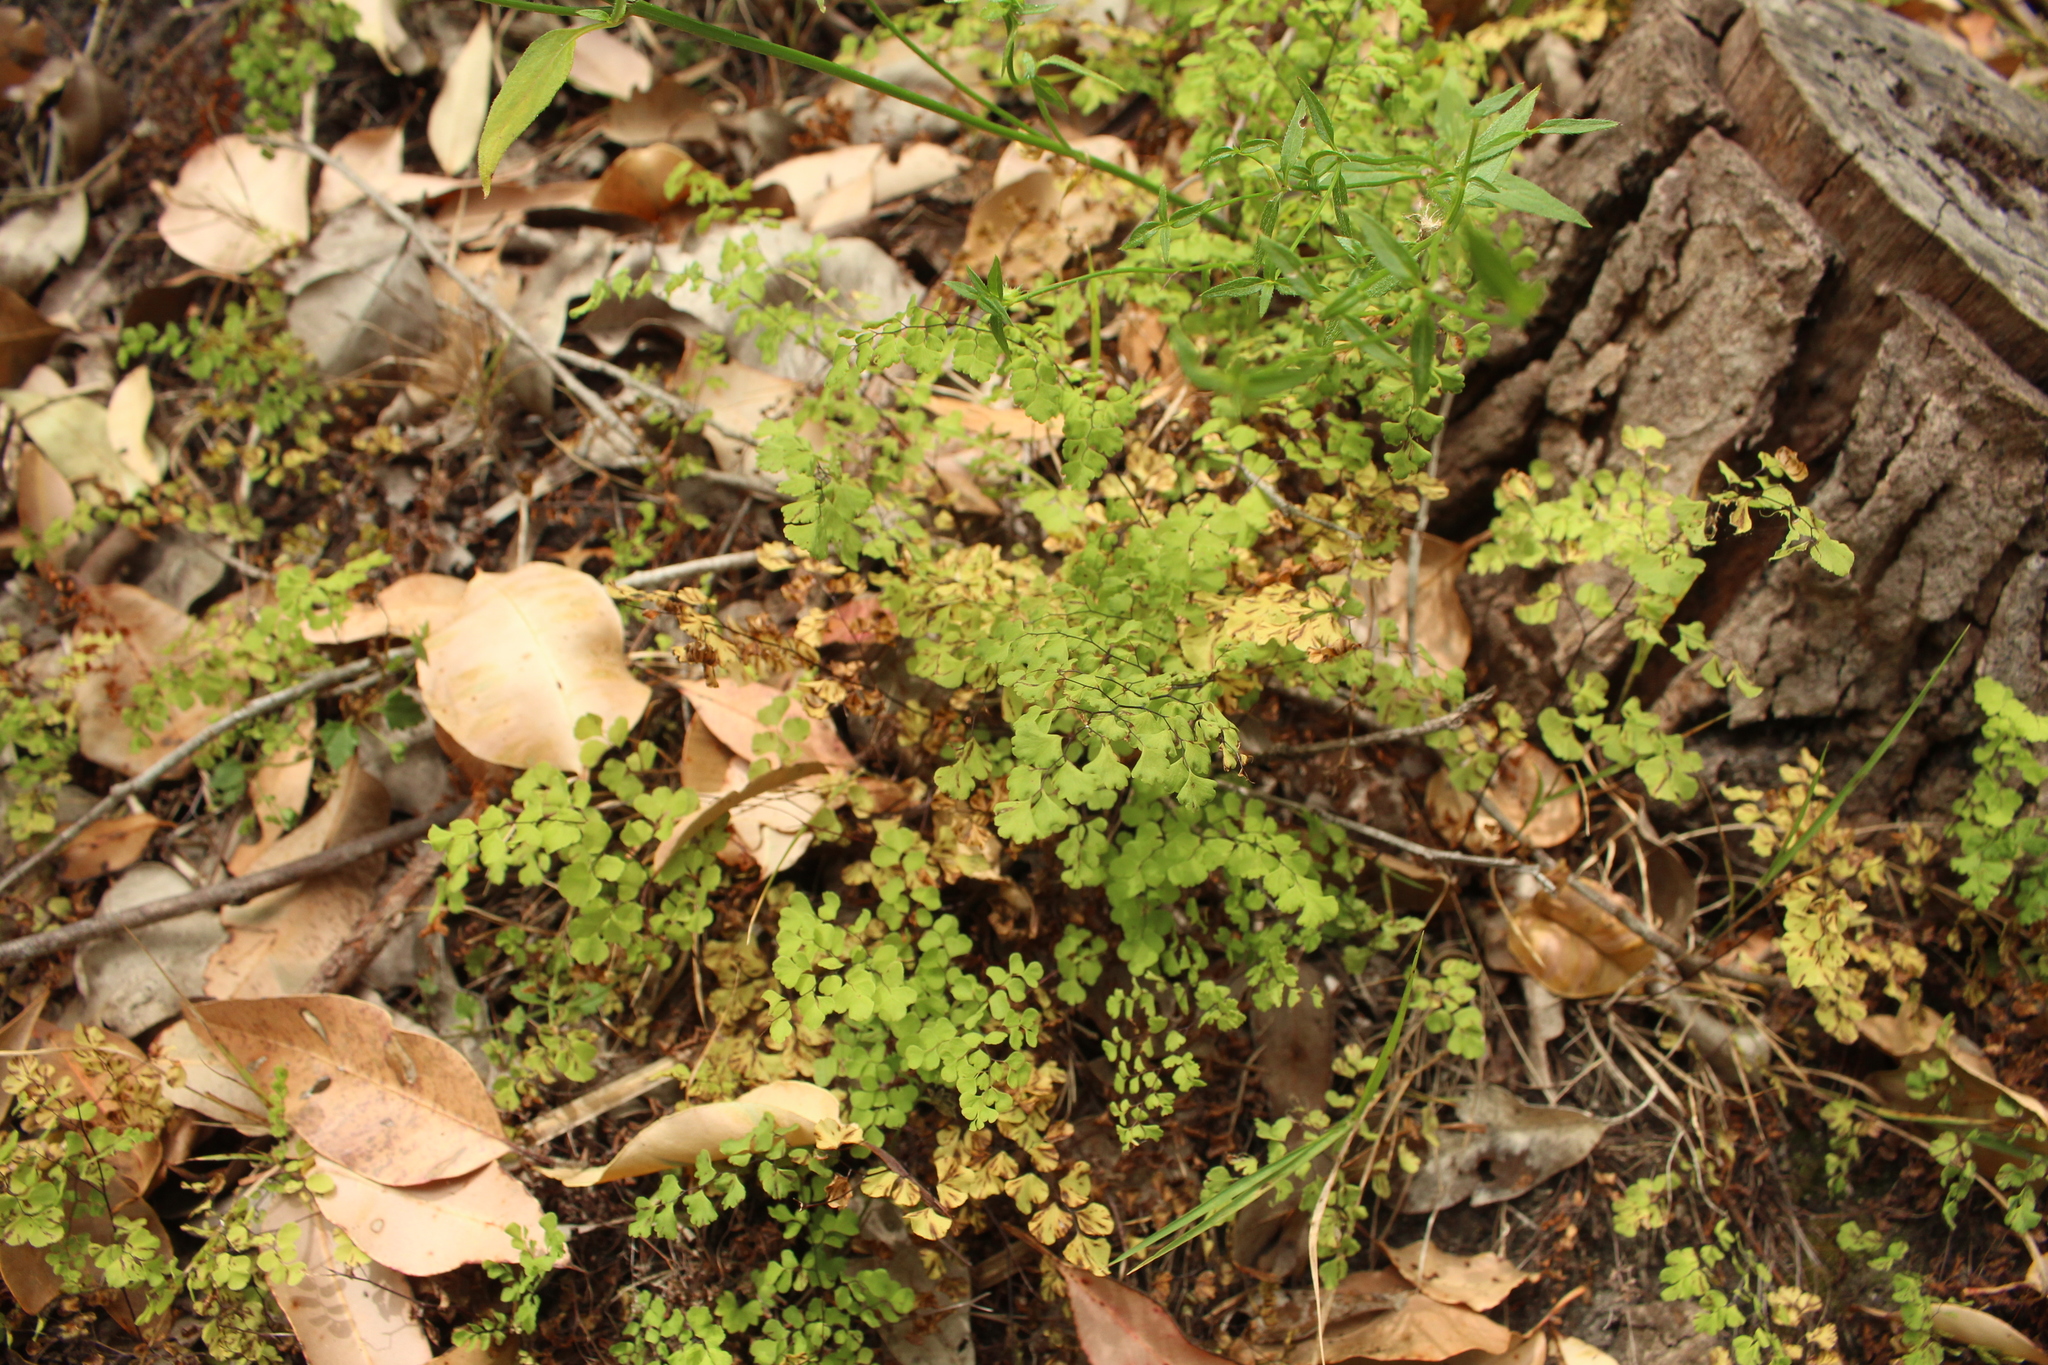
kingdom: Plantae
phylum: Tracheophyta
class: Polypodiopsida
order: Polypodiales
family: Pteridaceae
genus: Adiantum
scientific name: Adiantum aethiopicum
